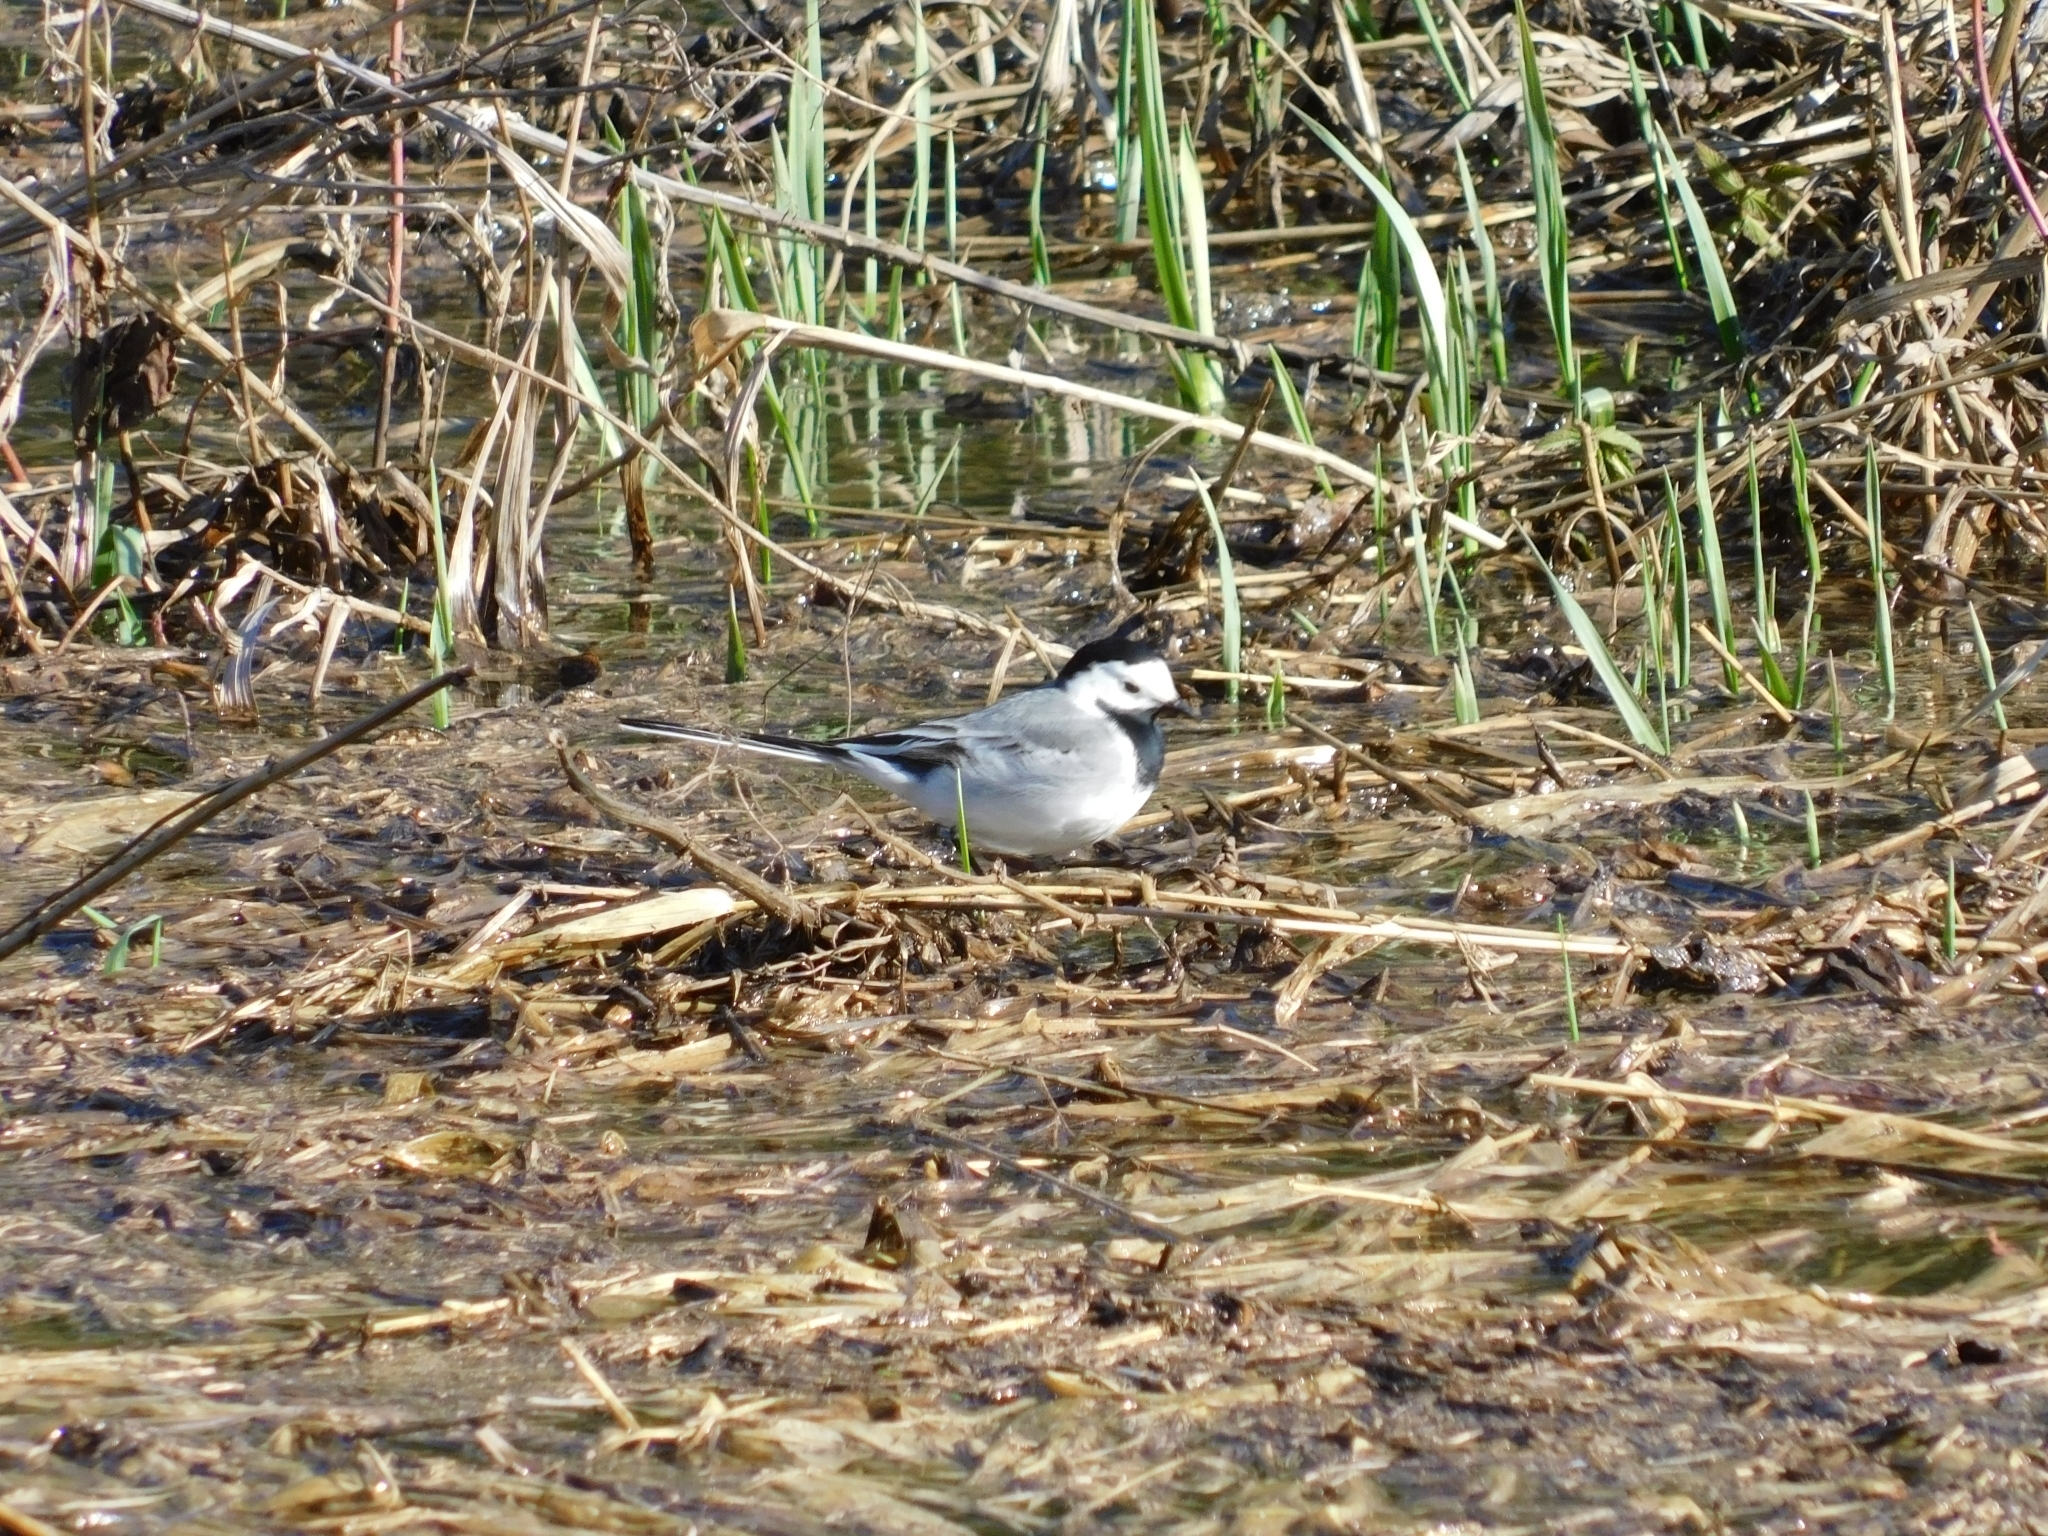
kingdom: Animalia
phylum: Chordata
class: Aves
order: Passeriformes
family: Motacillidae
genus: Motacilla
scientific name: Motacilla alba
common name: White wagtail
